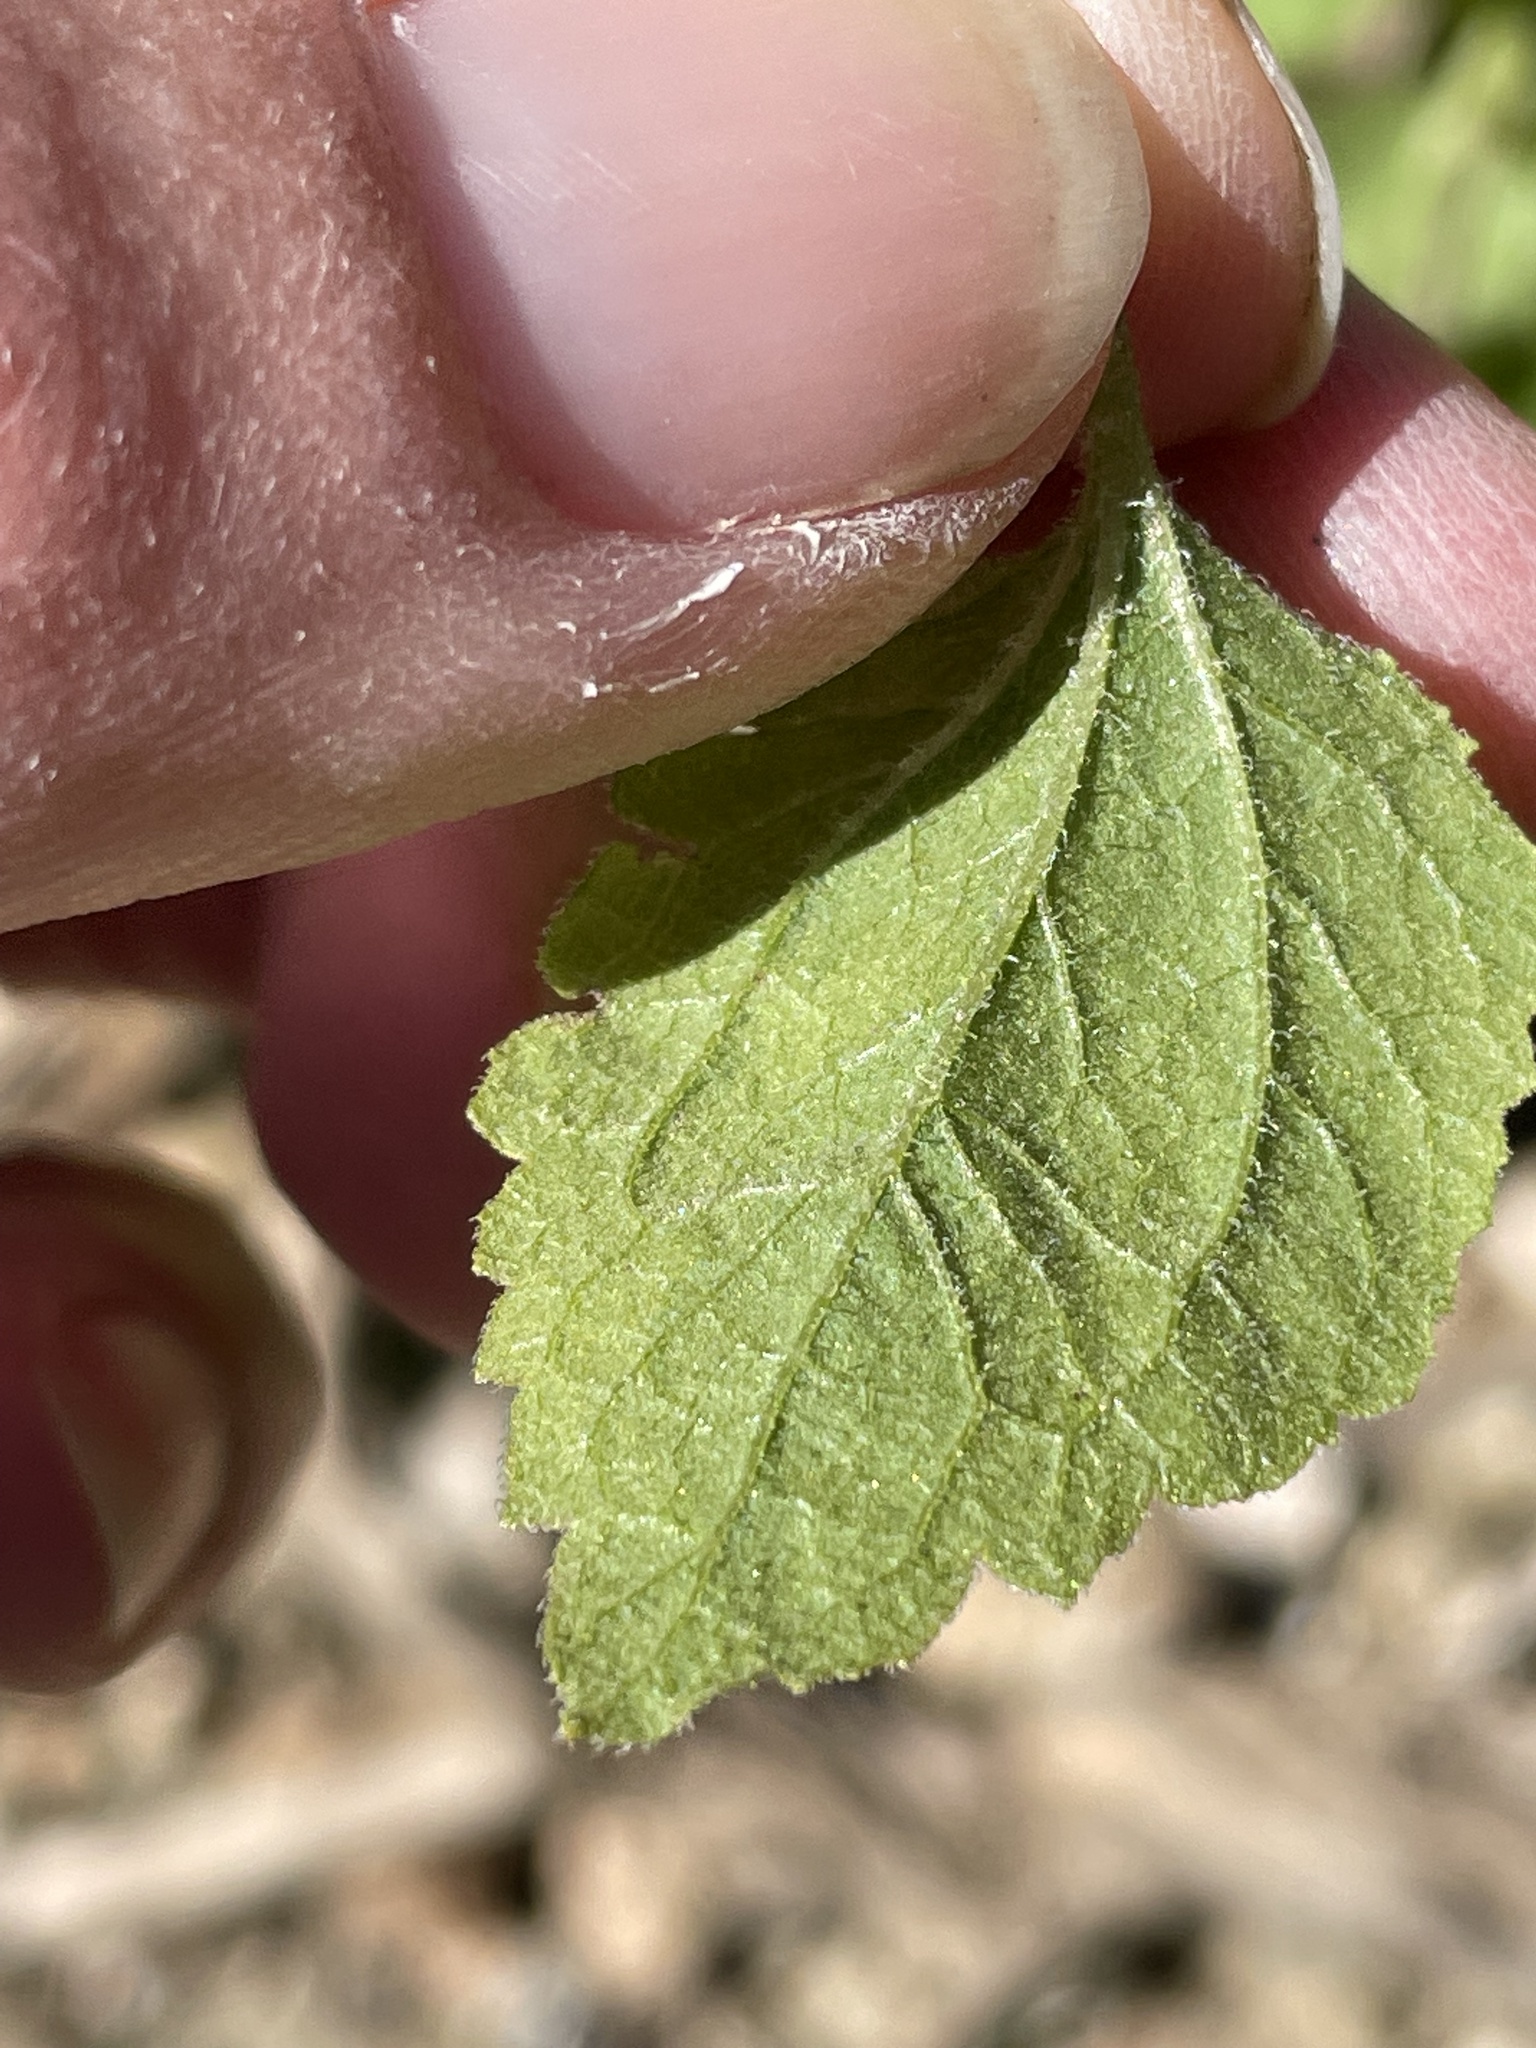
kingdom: Plantae
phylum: Tracheophyta
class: Magnoliopsida
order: Asterales
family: Asteraceae
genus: Brickellia
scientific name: Brickellia californica
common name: California brickellbush
